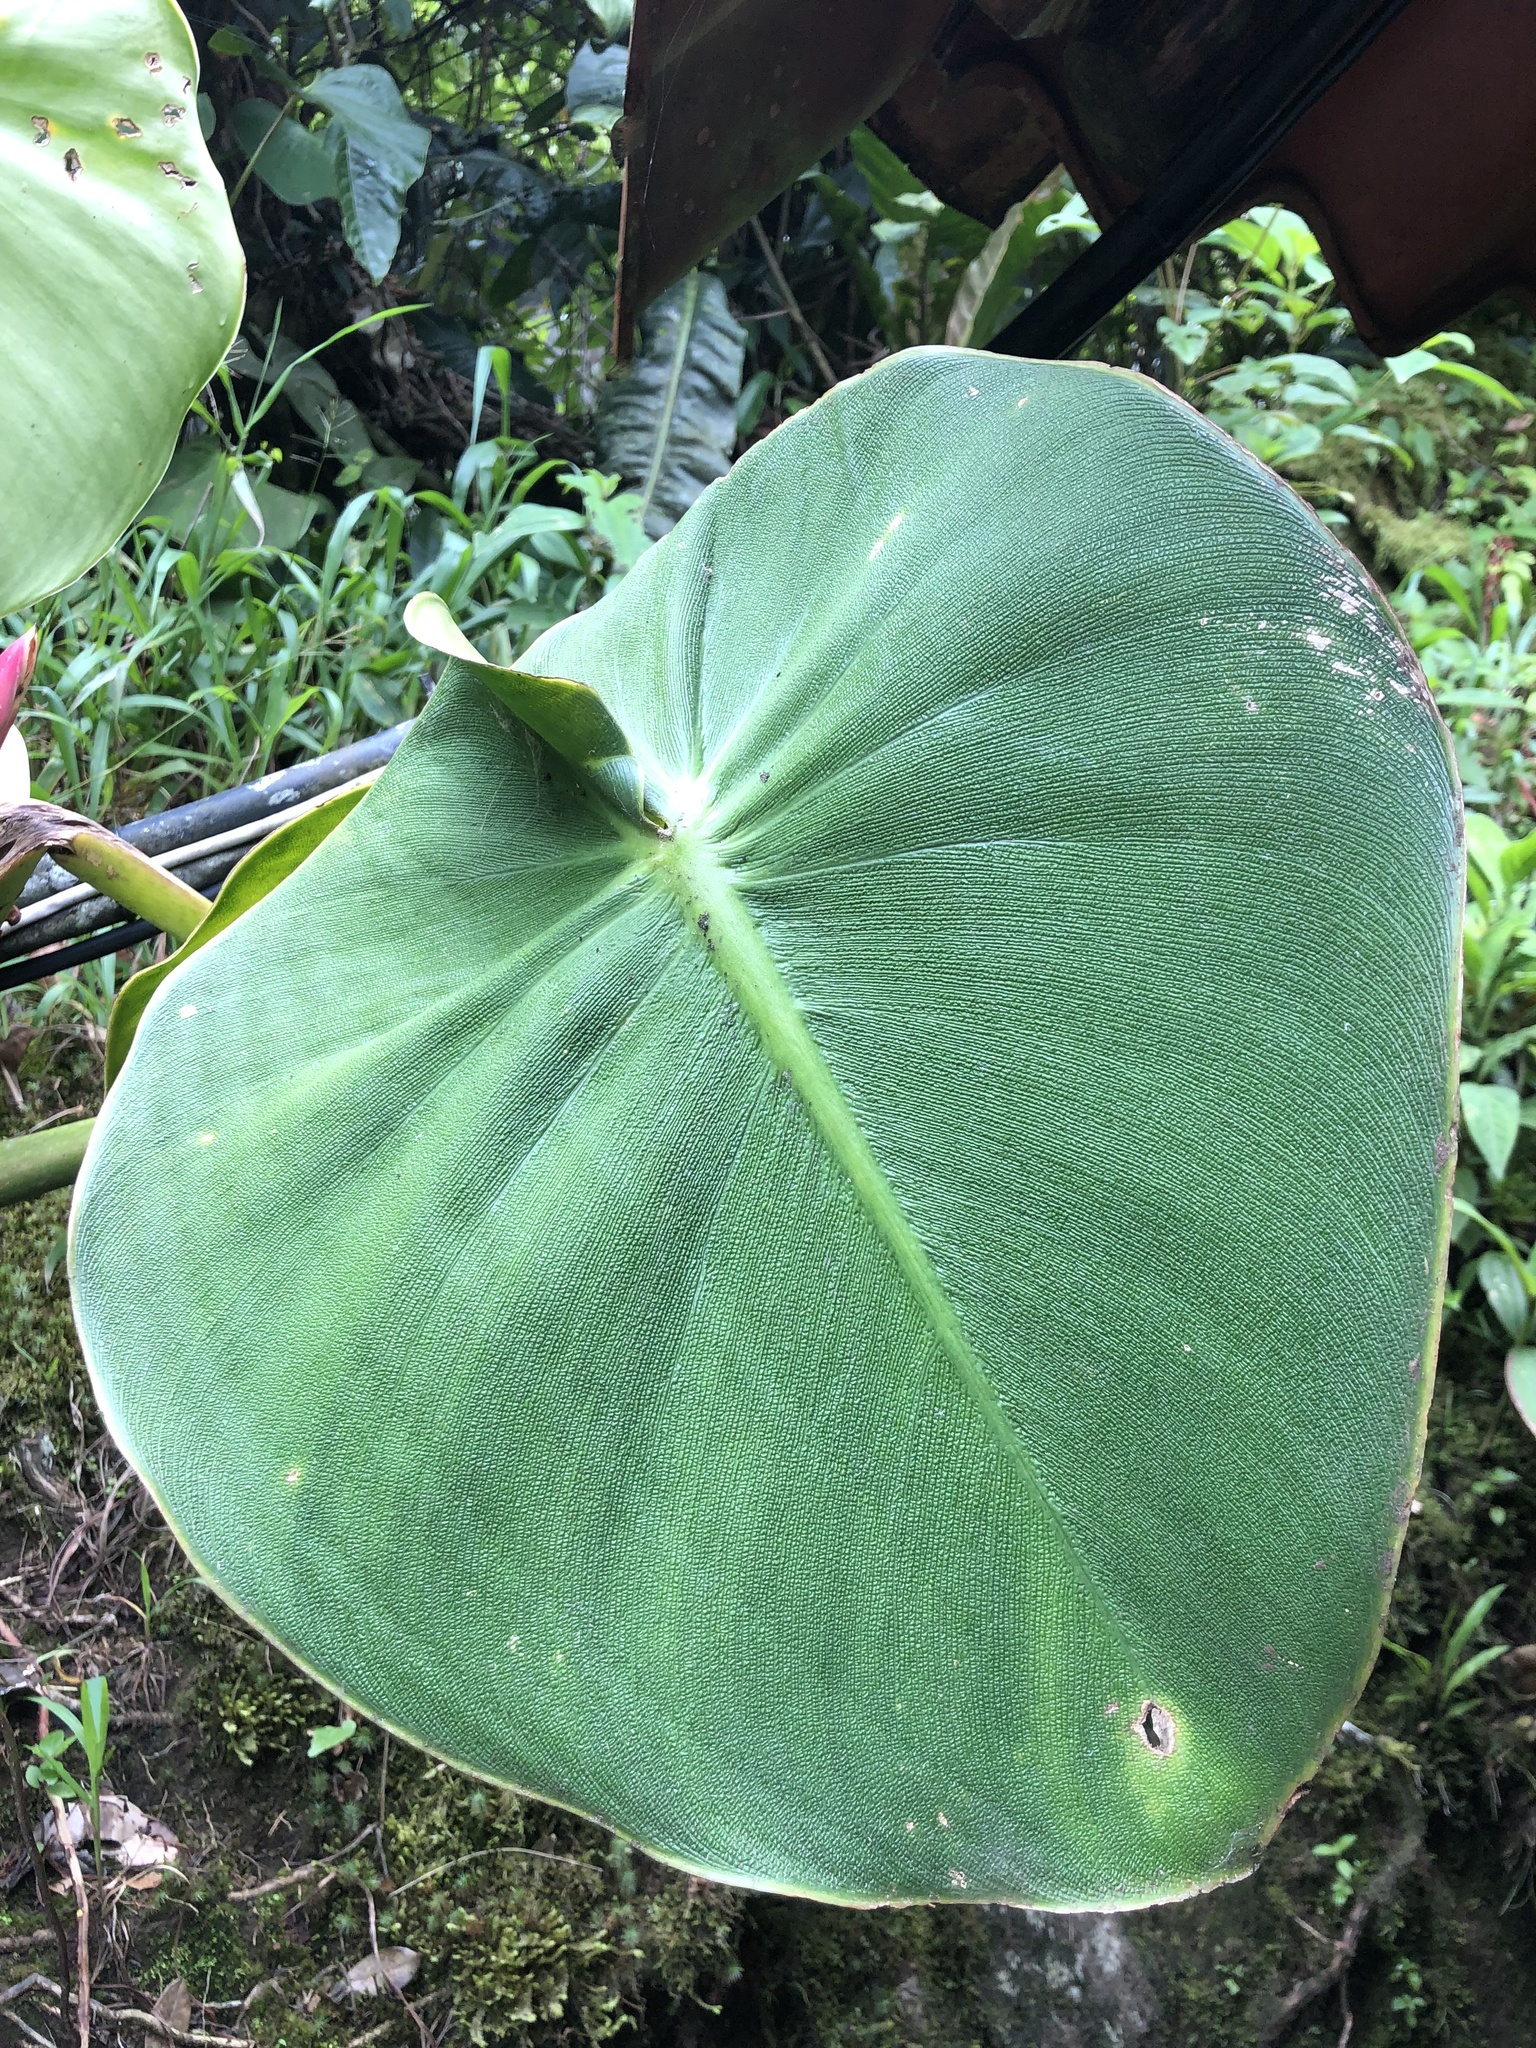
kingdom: Plantae
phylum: Tracheophyta
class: Liliopsida
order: Alismatales
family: Araceae
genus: Philodendron
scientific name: Philodendron rugosum
